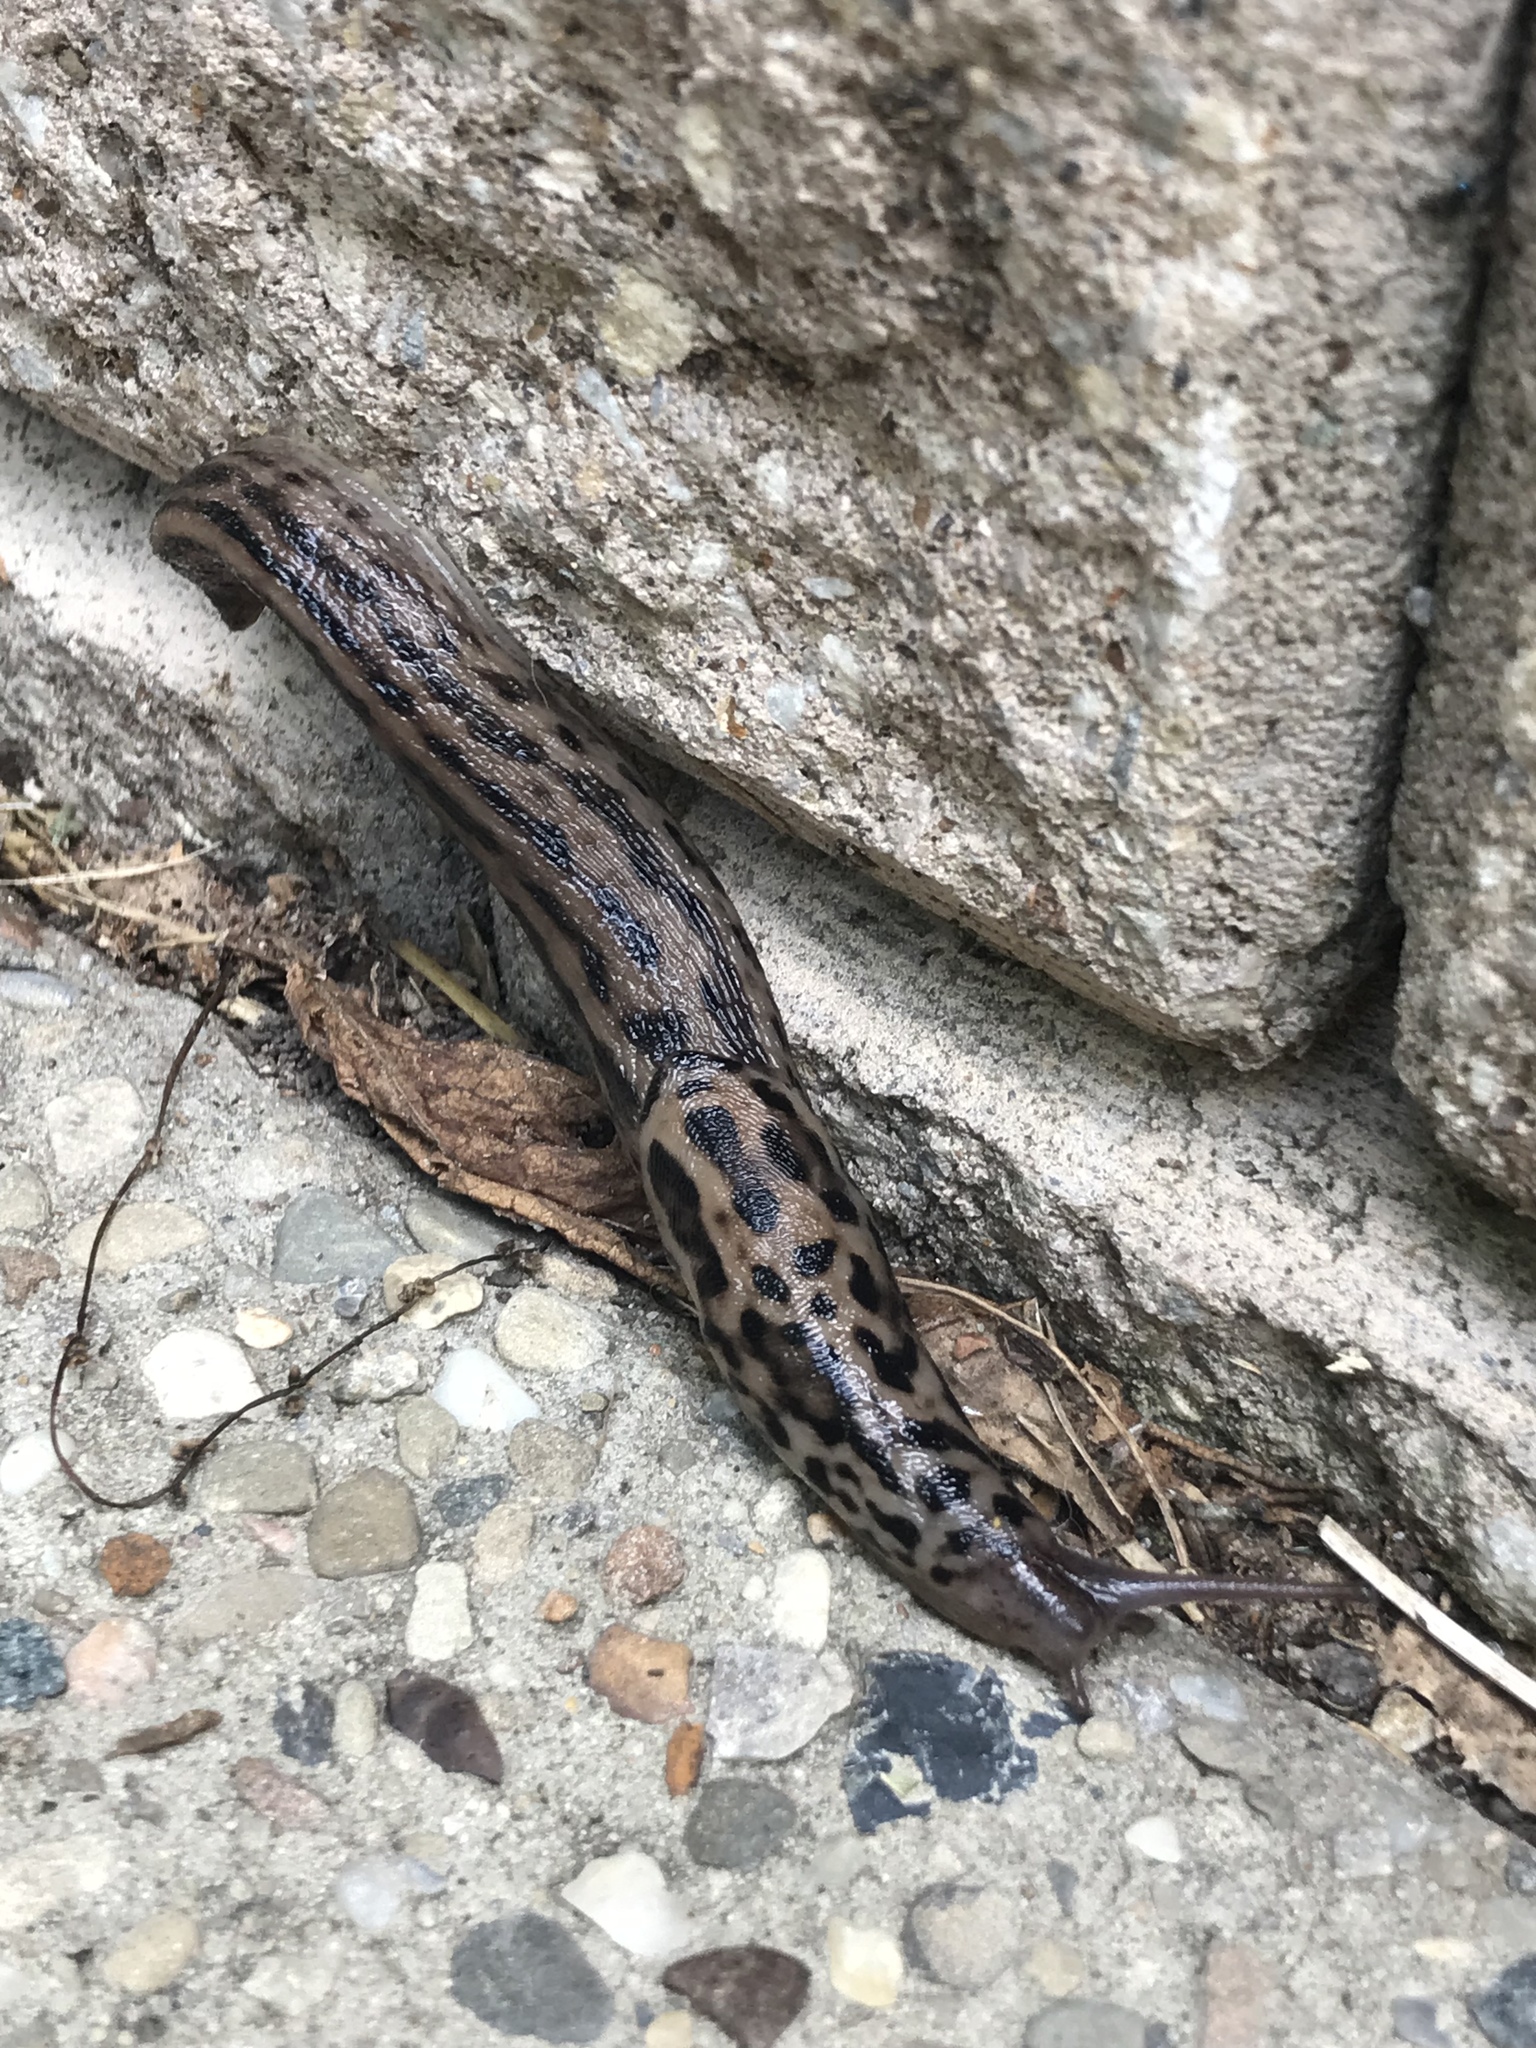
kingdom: Animalia
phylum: Mollusca
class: Gastropoda
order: Stylommatophora
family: Limacidae
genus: Limax
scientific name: Limax maximus
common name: Great grey slug
